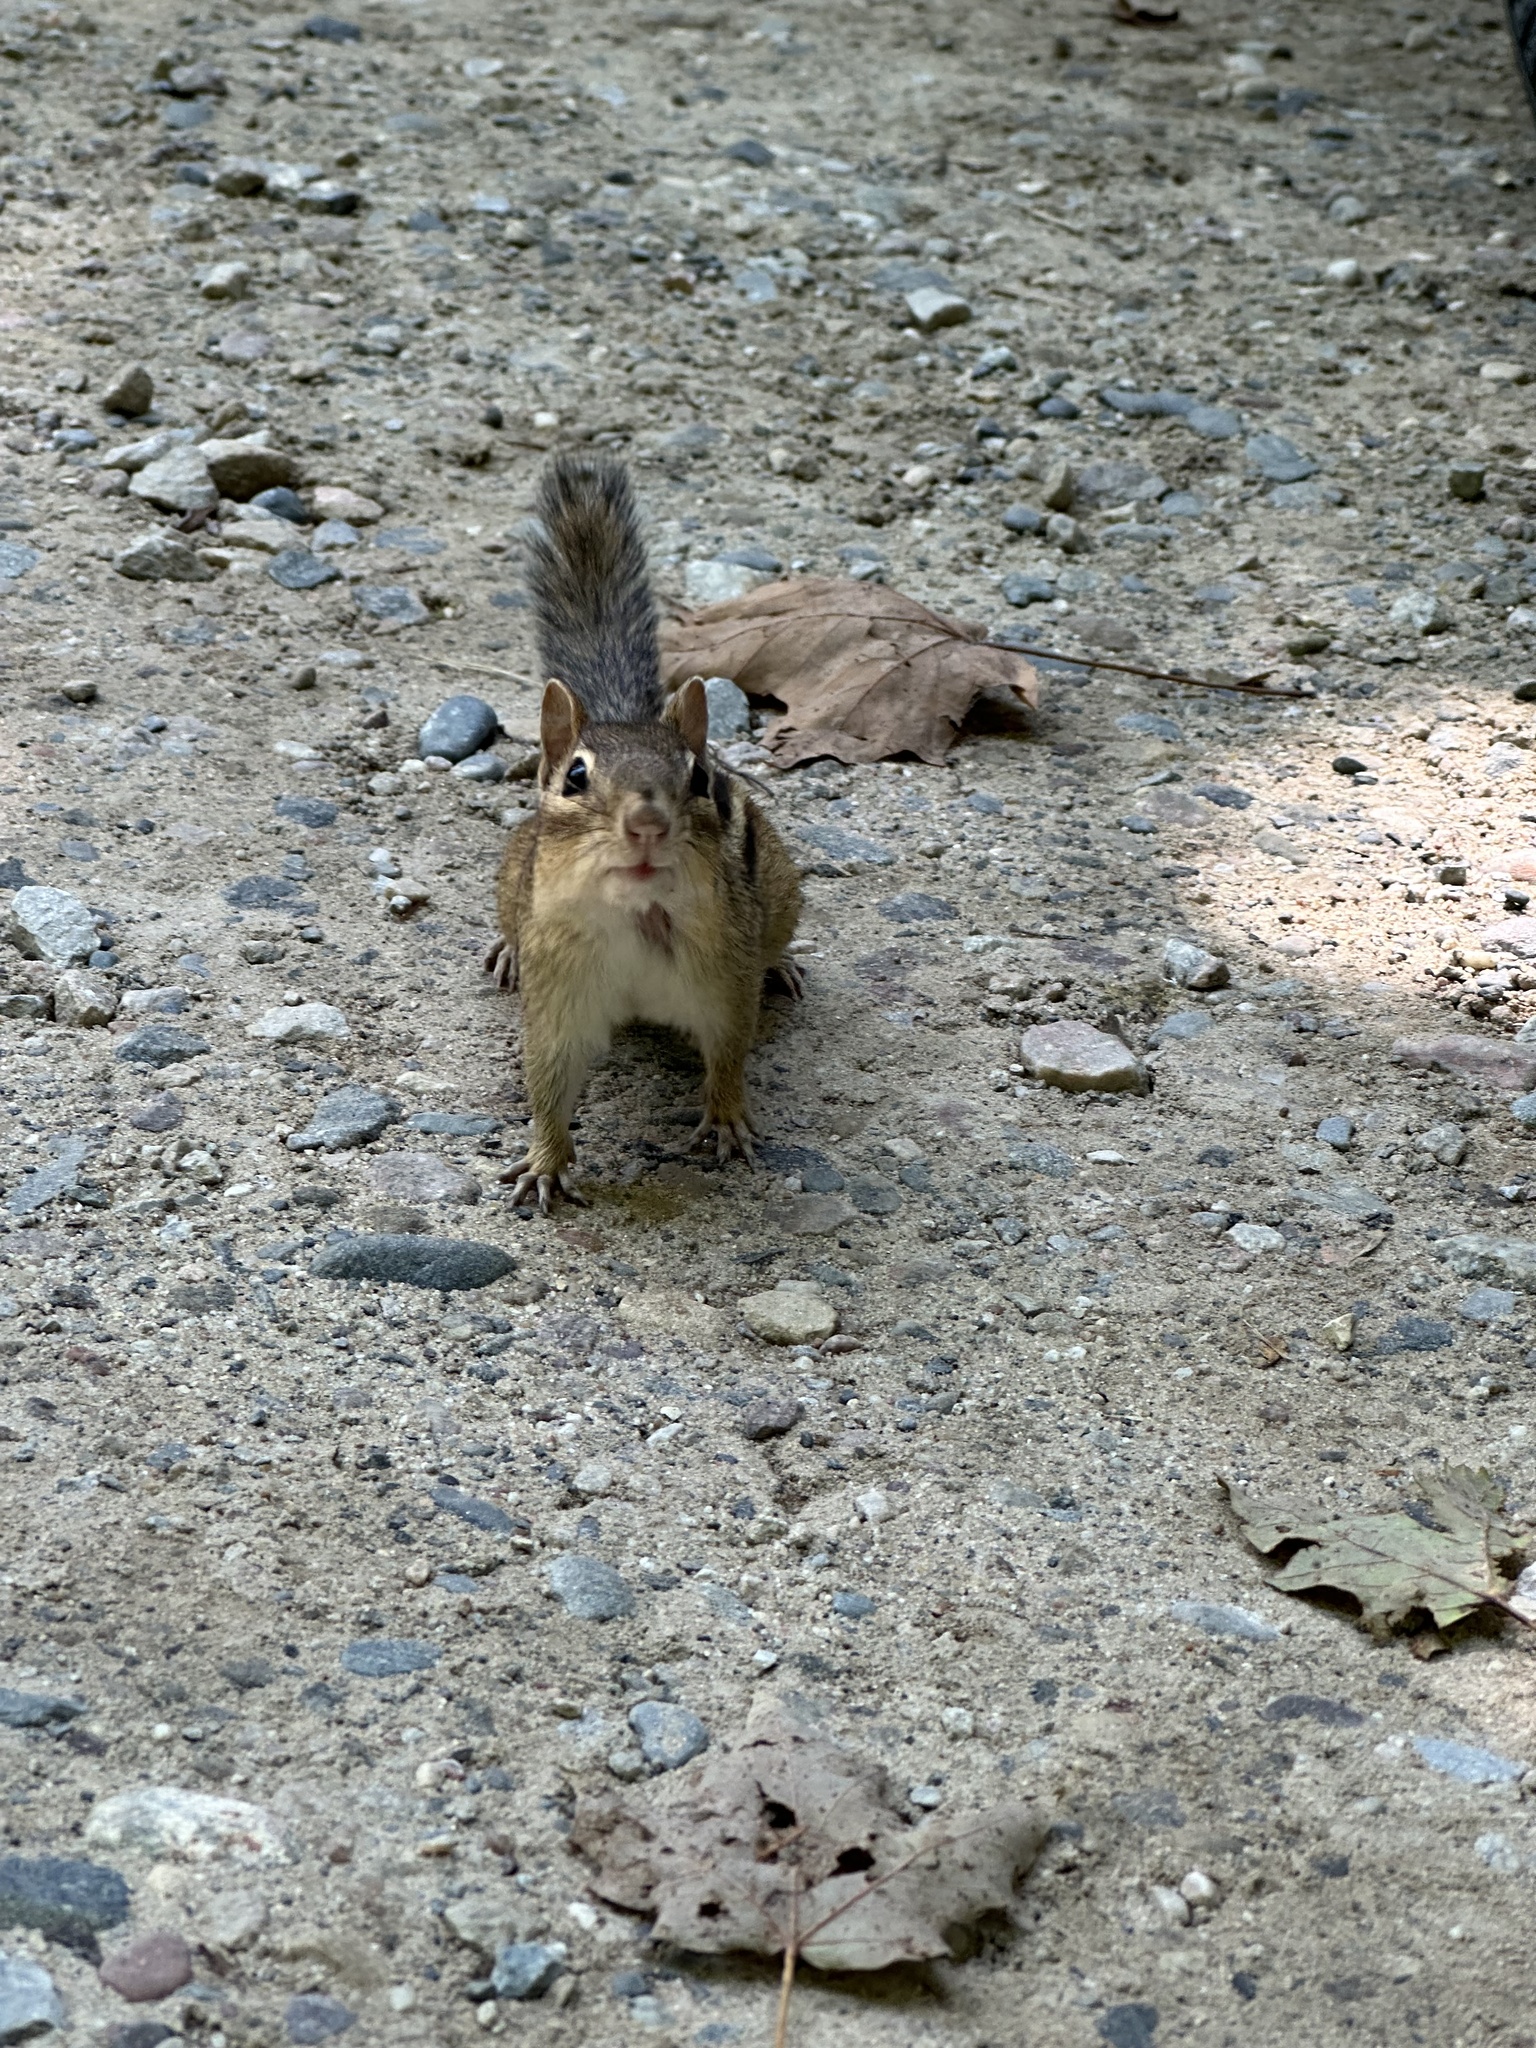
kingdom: Animalia
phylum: Chordata
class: Mammalia
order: Rodentia
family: Sciuridae
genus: Tamias
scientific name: Tamias striatus
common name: Eastern chipmunk
